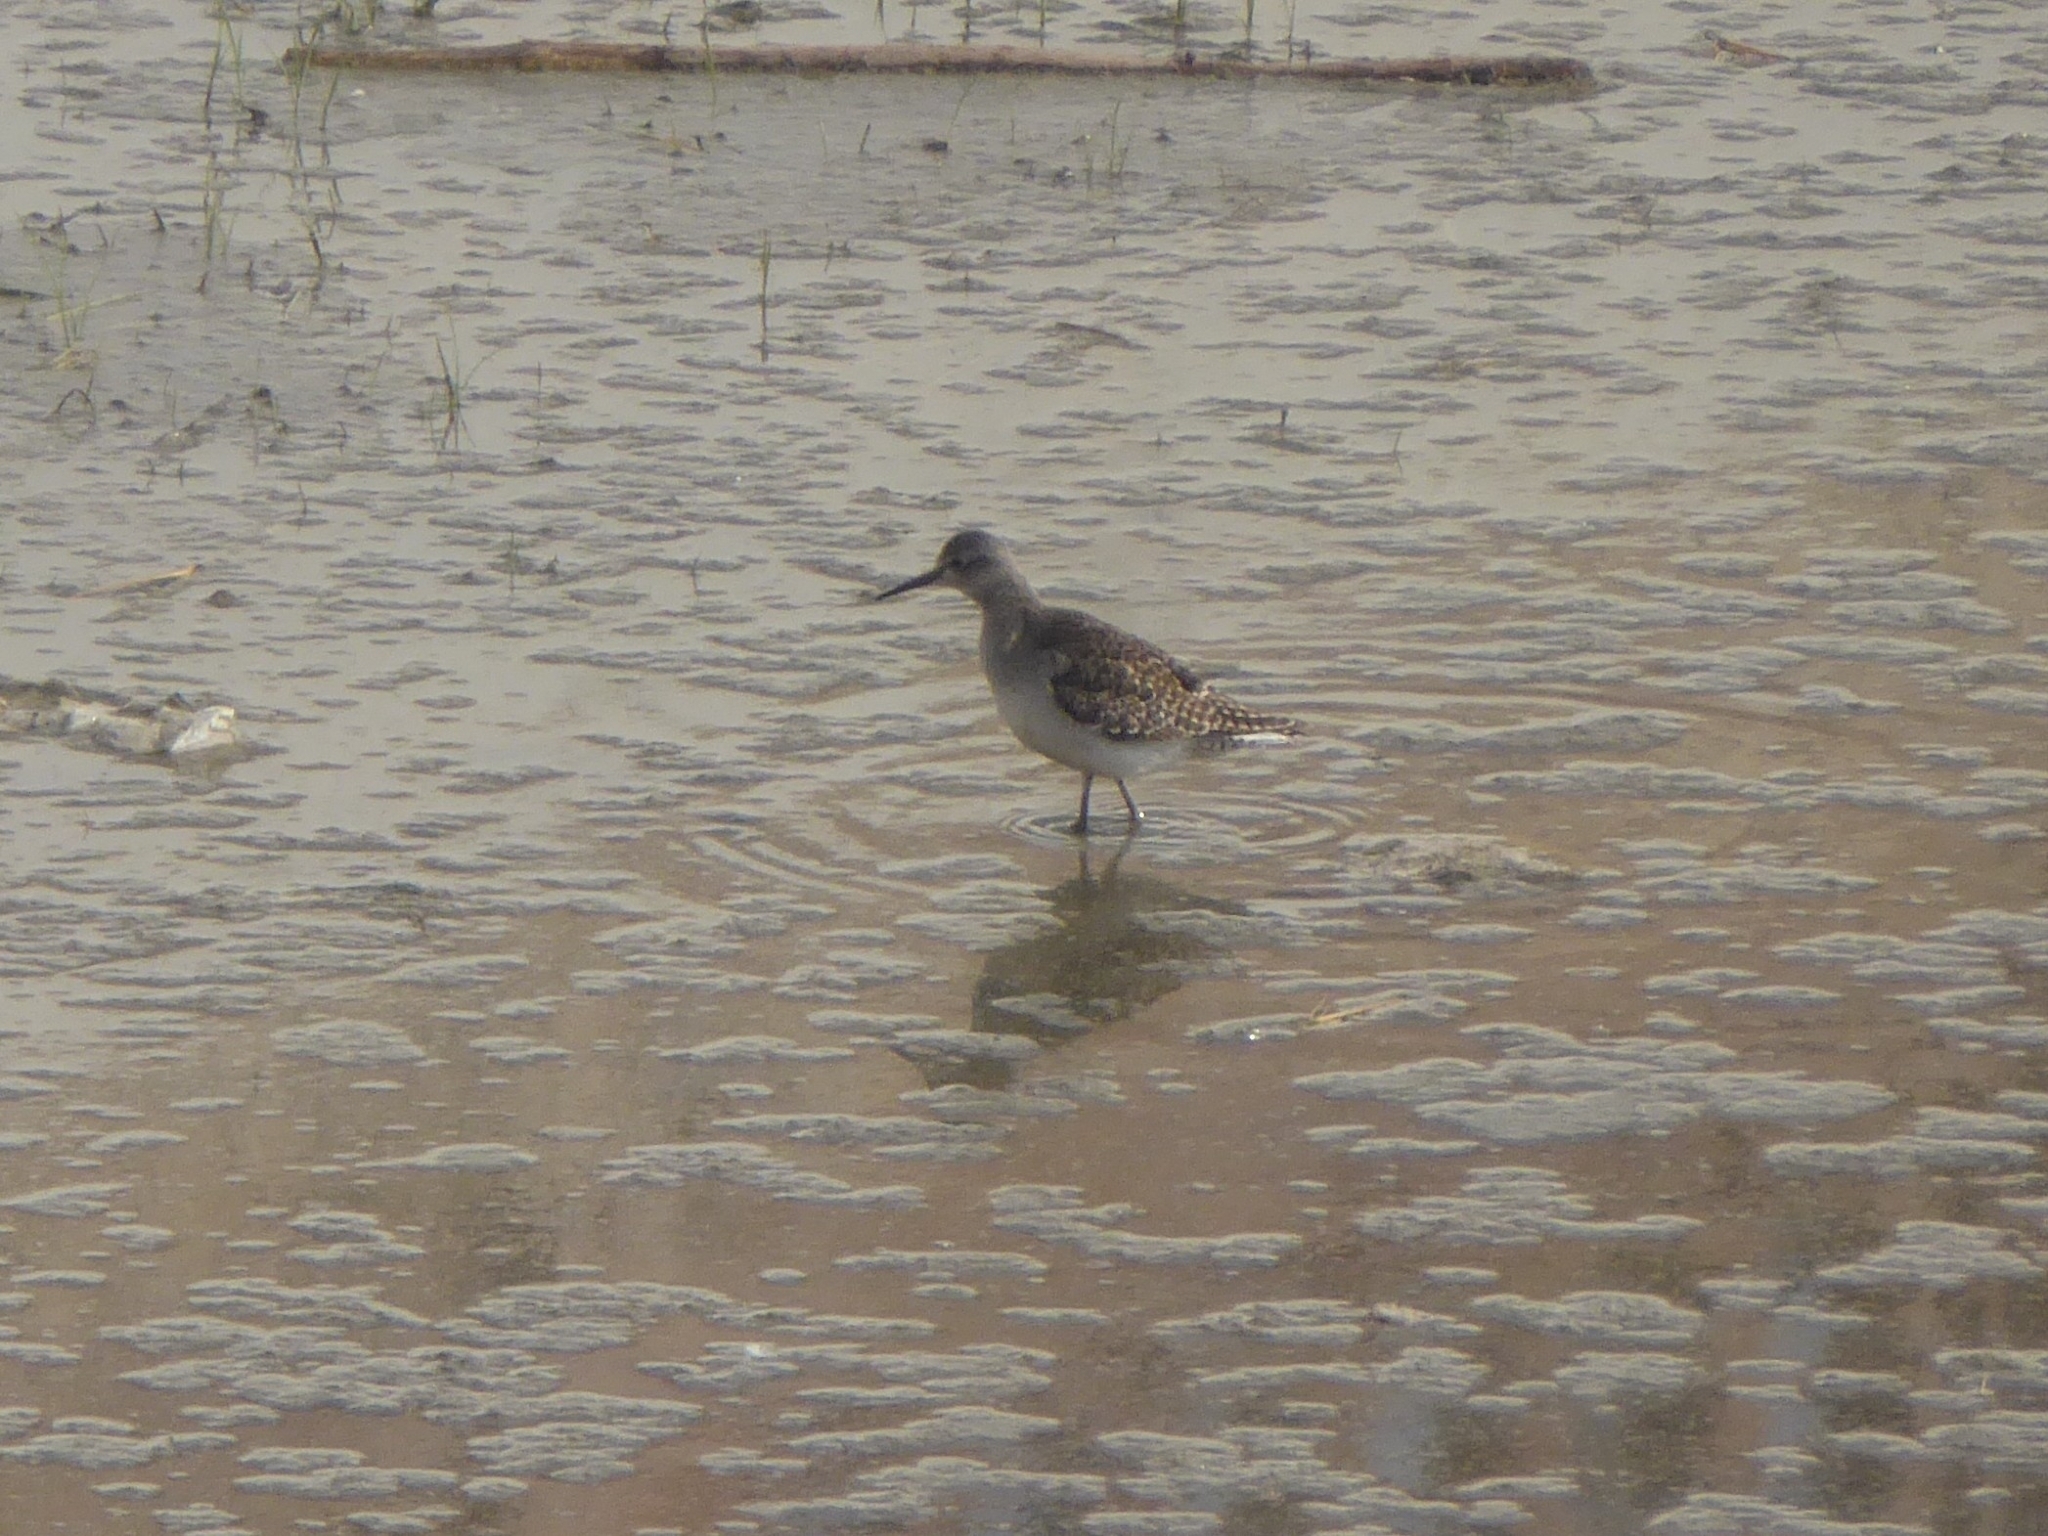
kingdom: Animalia
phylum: Chordata
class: Aves
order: Charadriiformes
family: Scolopacidae
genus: Tringa
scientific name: Tringa glareola
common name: Wood sandpiper
